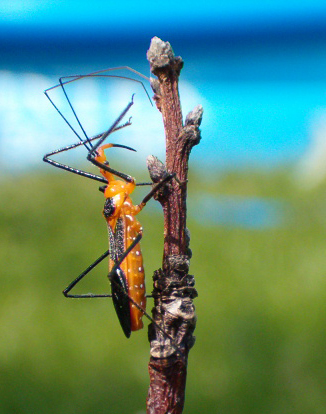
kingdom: Animalia
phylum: Arthropoda
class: Insecta
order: Hemiptera
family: Reduviidae
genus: Zelus
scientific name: Zelus longipes
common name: Milkweed assassin bug
